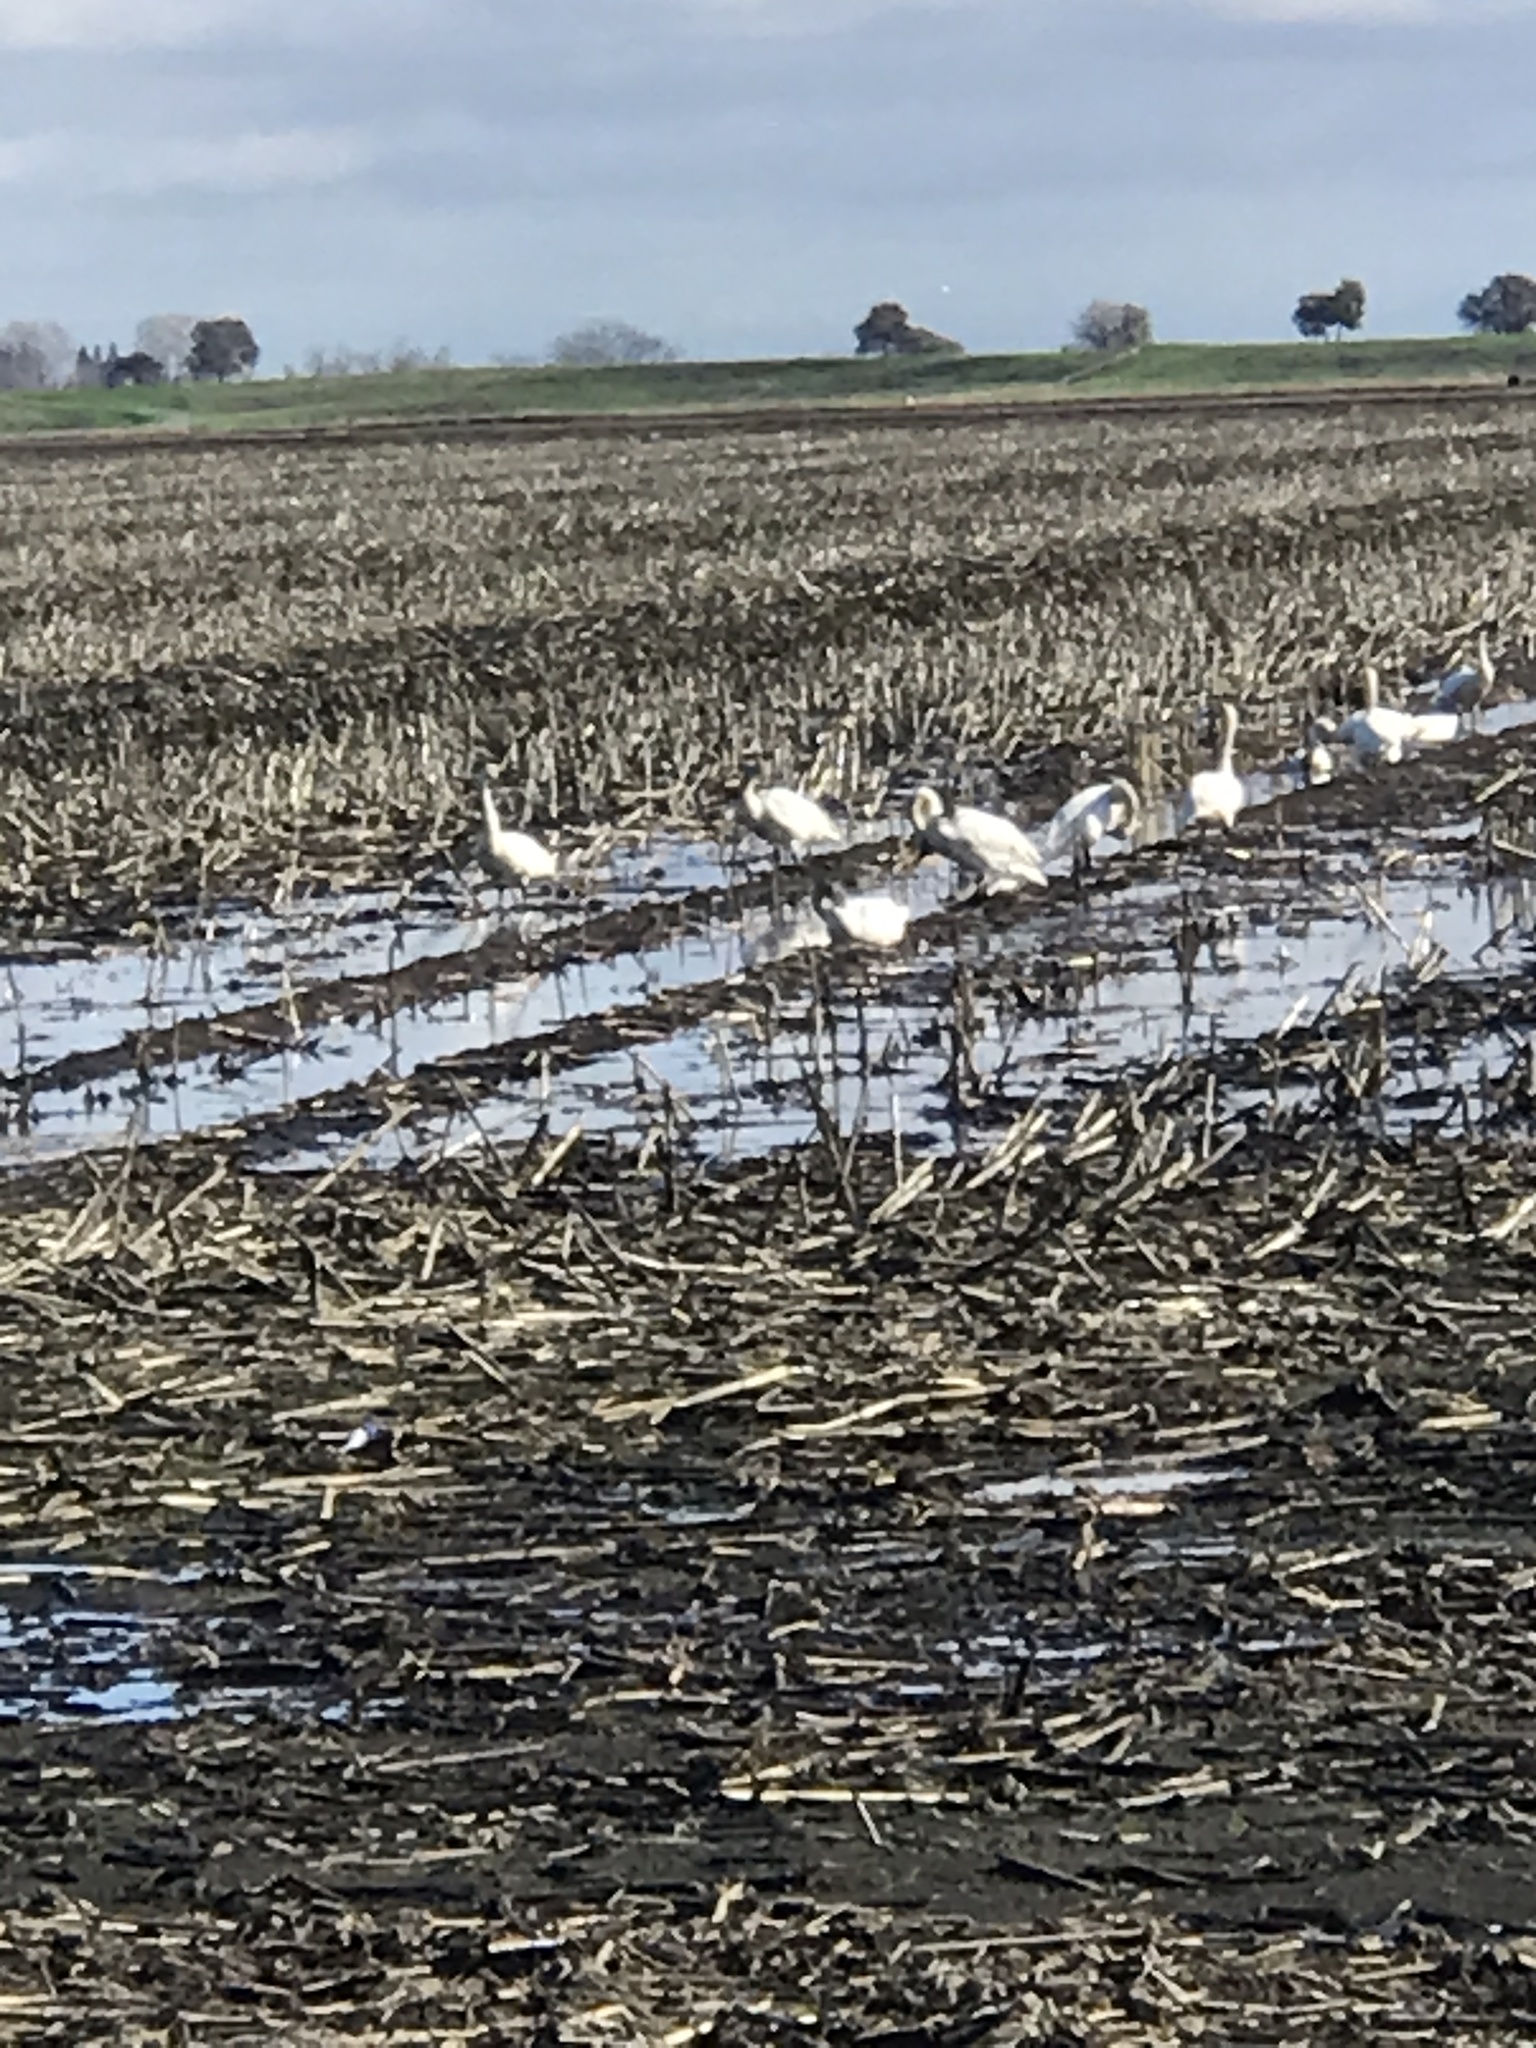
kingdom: Animalia
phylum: Chordata
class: Aves
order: Anseriformes
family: Anatidae
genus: Cygnus
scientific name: Cygnus columbianus
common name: Tundra swan
